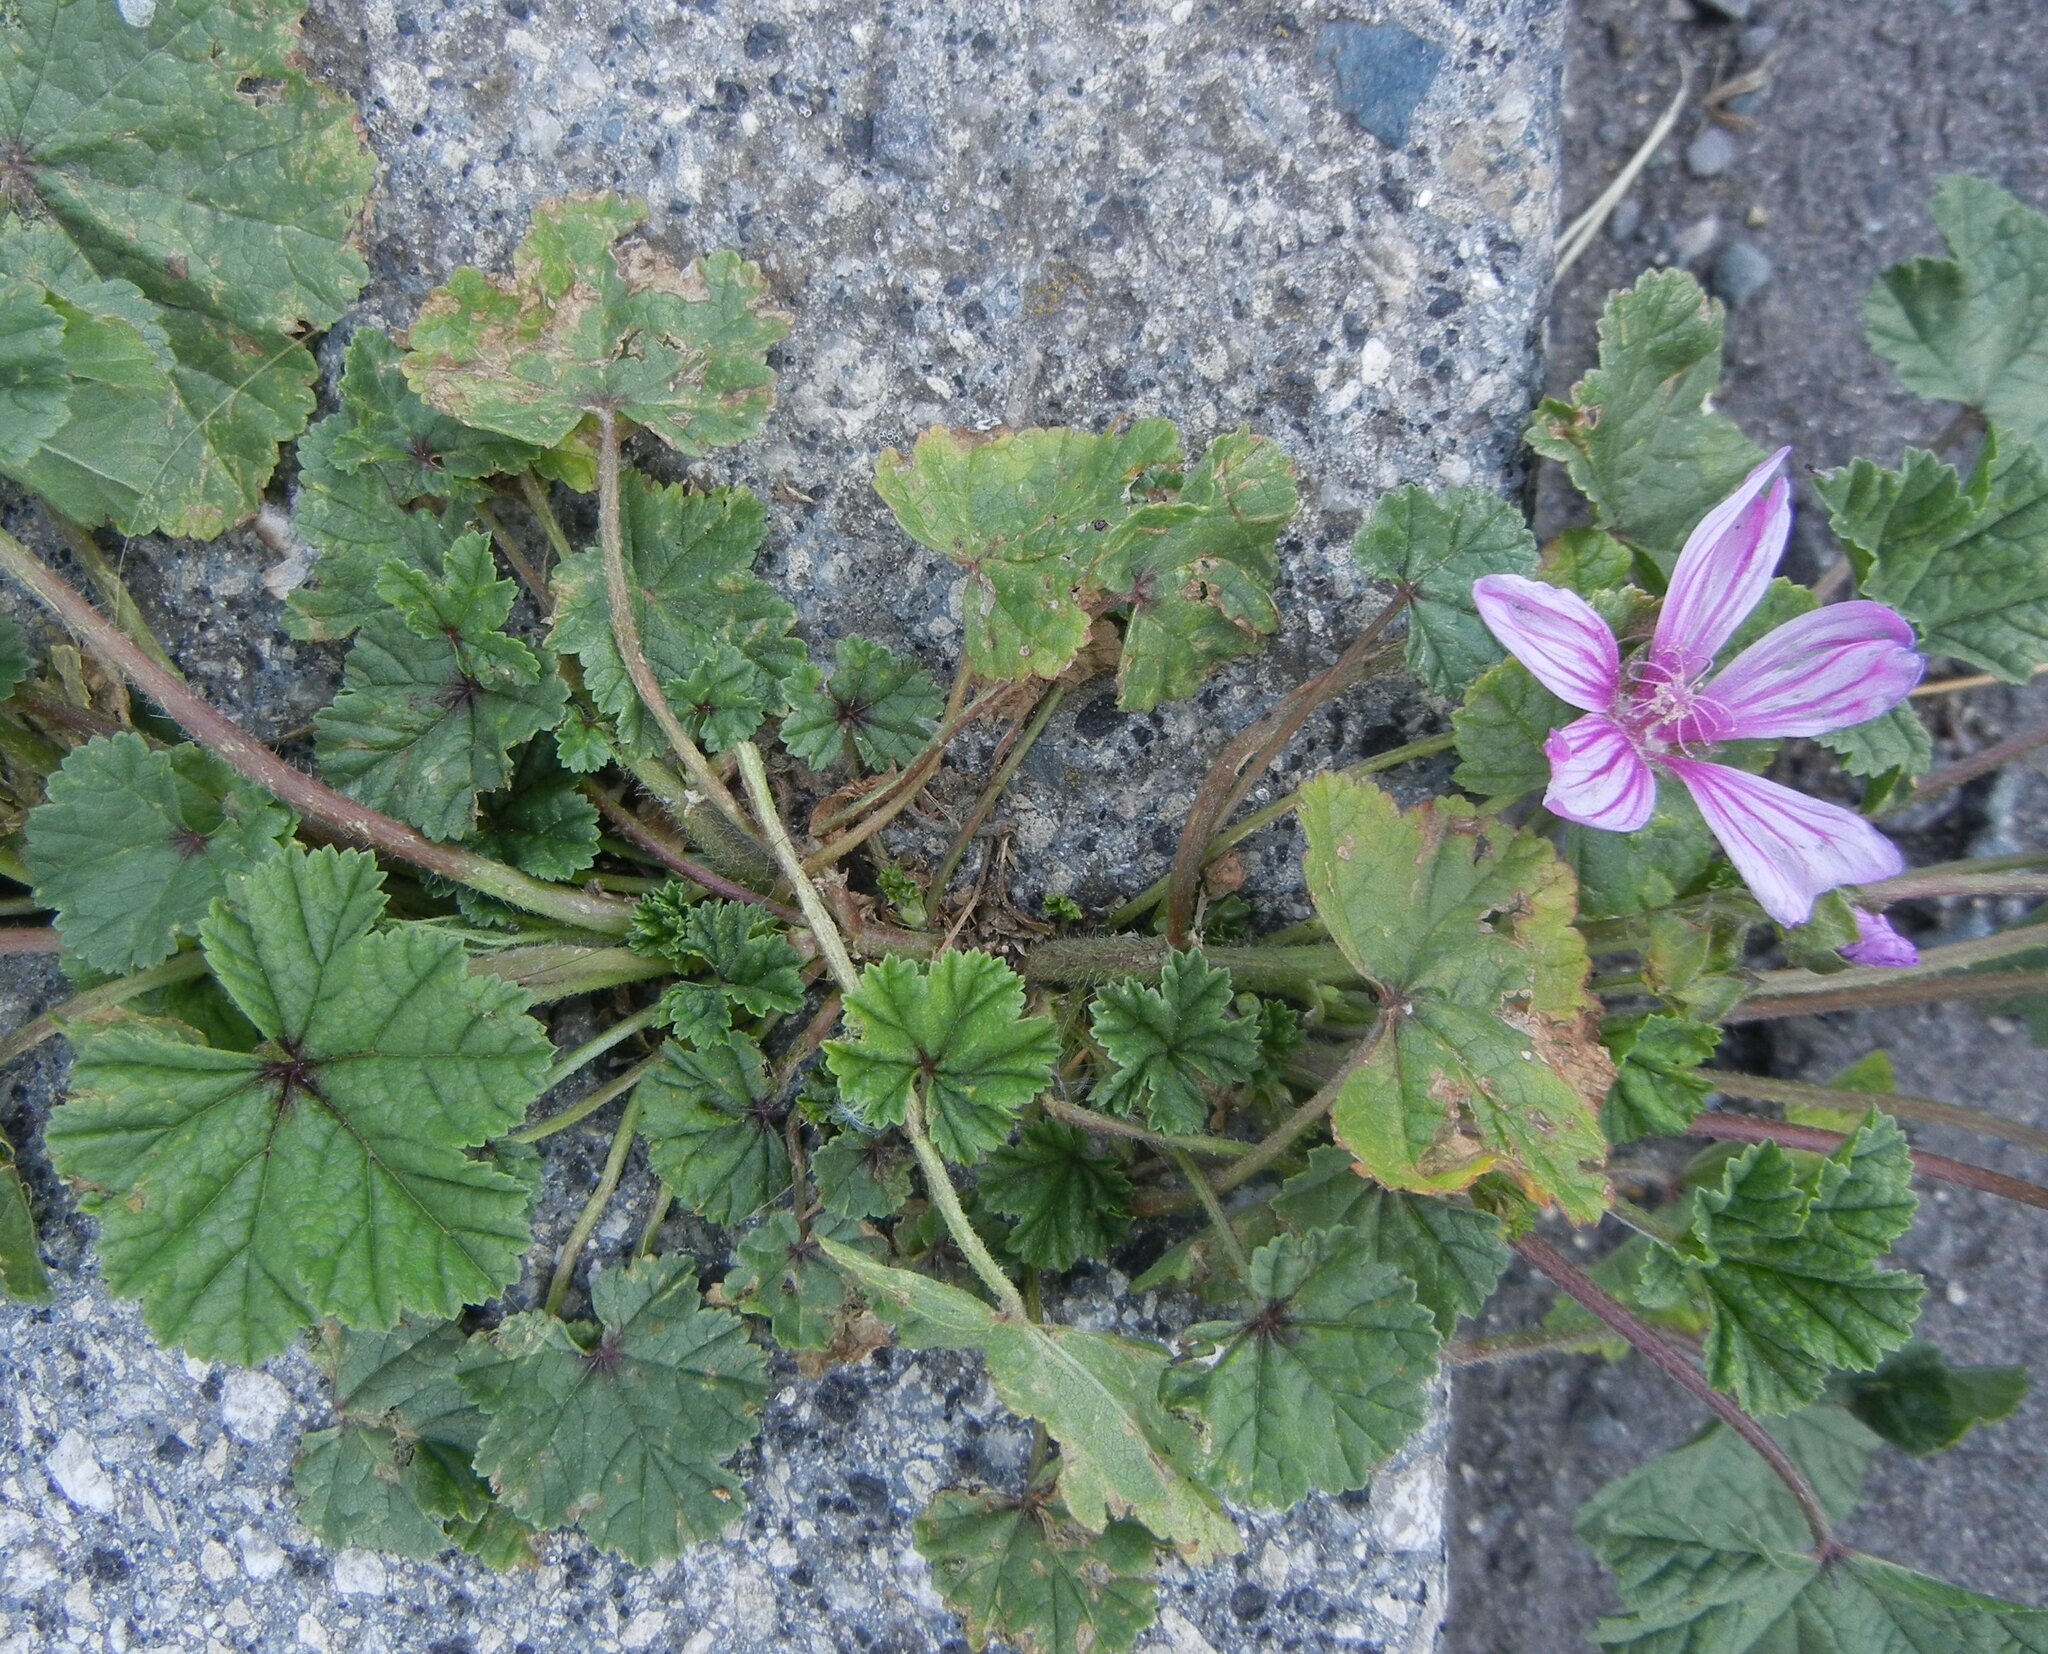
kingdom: Plantae
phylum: Tracheophyta
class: Magnoliopsida
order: Malvales
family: Malvaceae
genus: Malva
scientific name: Malva sylvestris
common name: Common mallow
